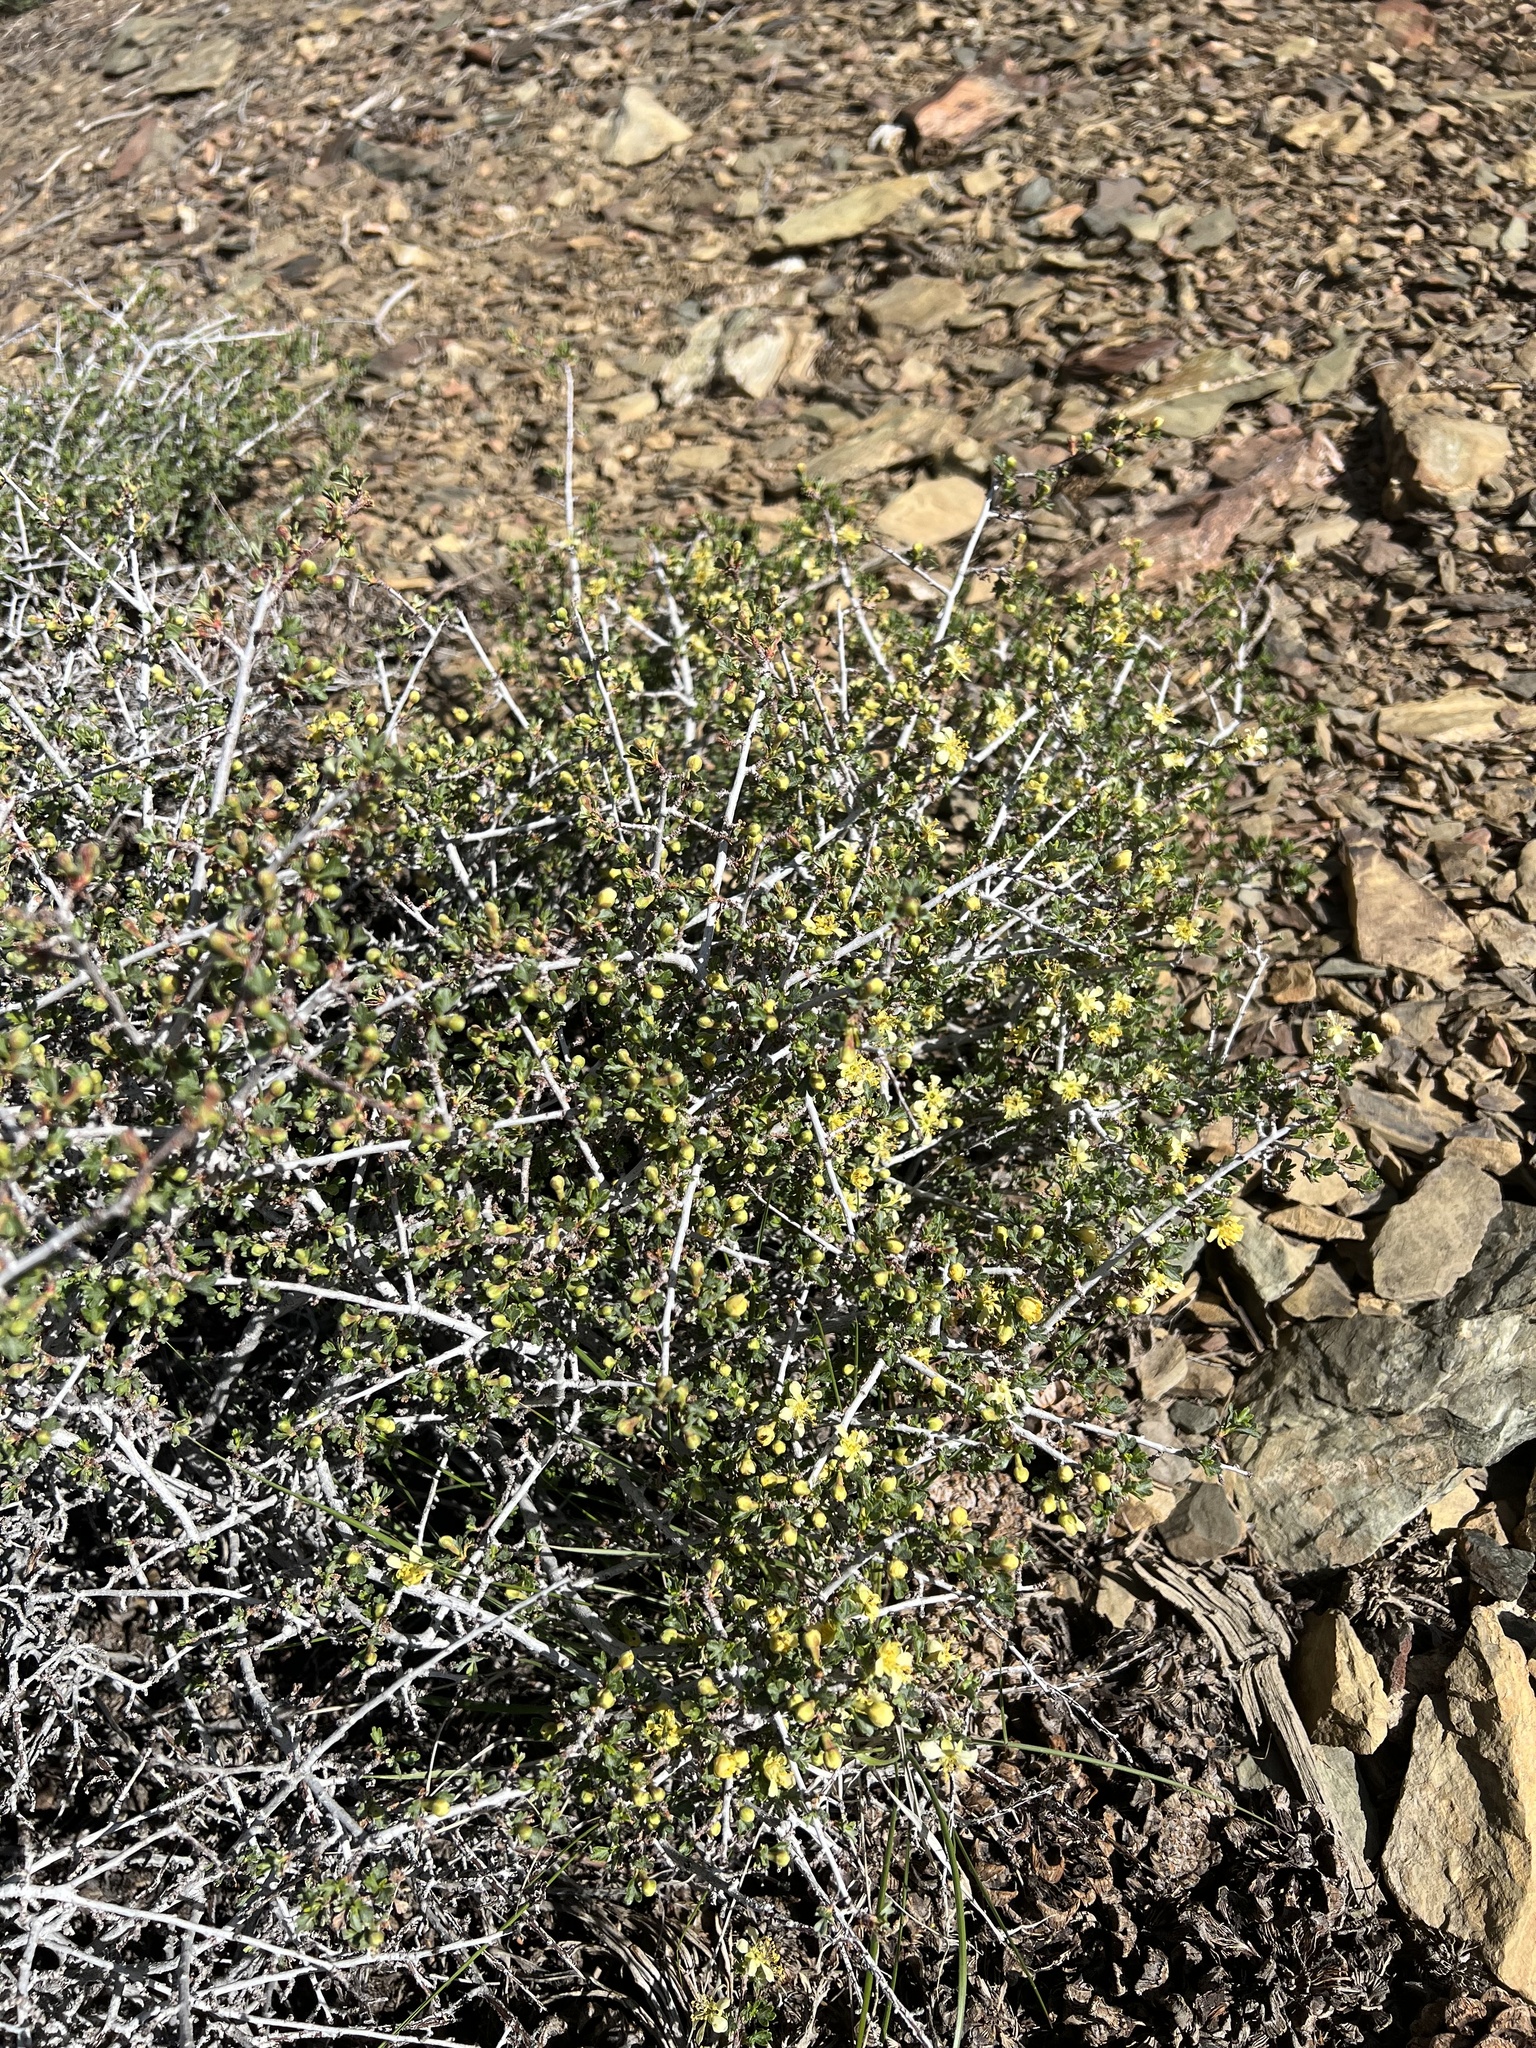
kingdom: Plantae
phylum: Tracheophyta
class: Magnoliopsida
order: Rosales
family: Rosaceae
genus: Purshia
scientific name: Purshia tridentata
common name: Antelope bitterbrush
